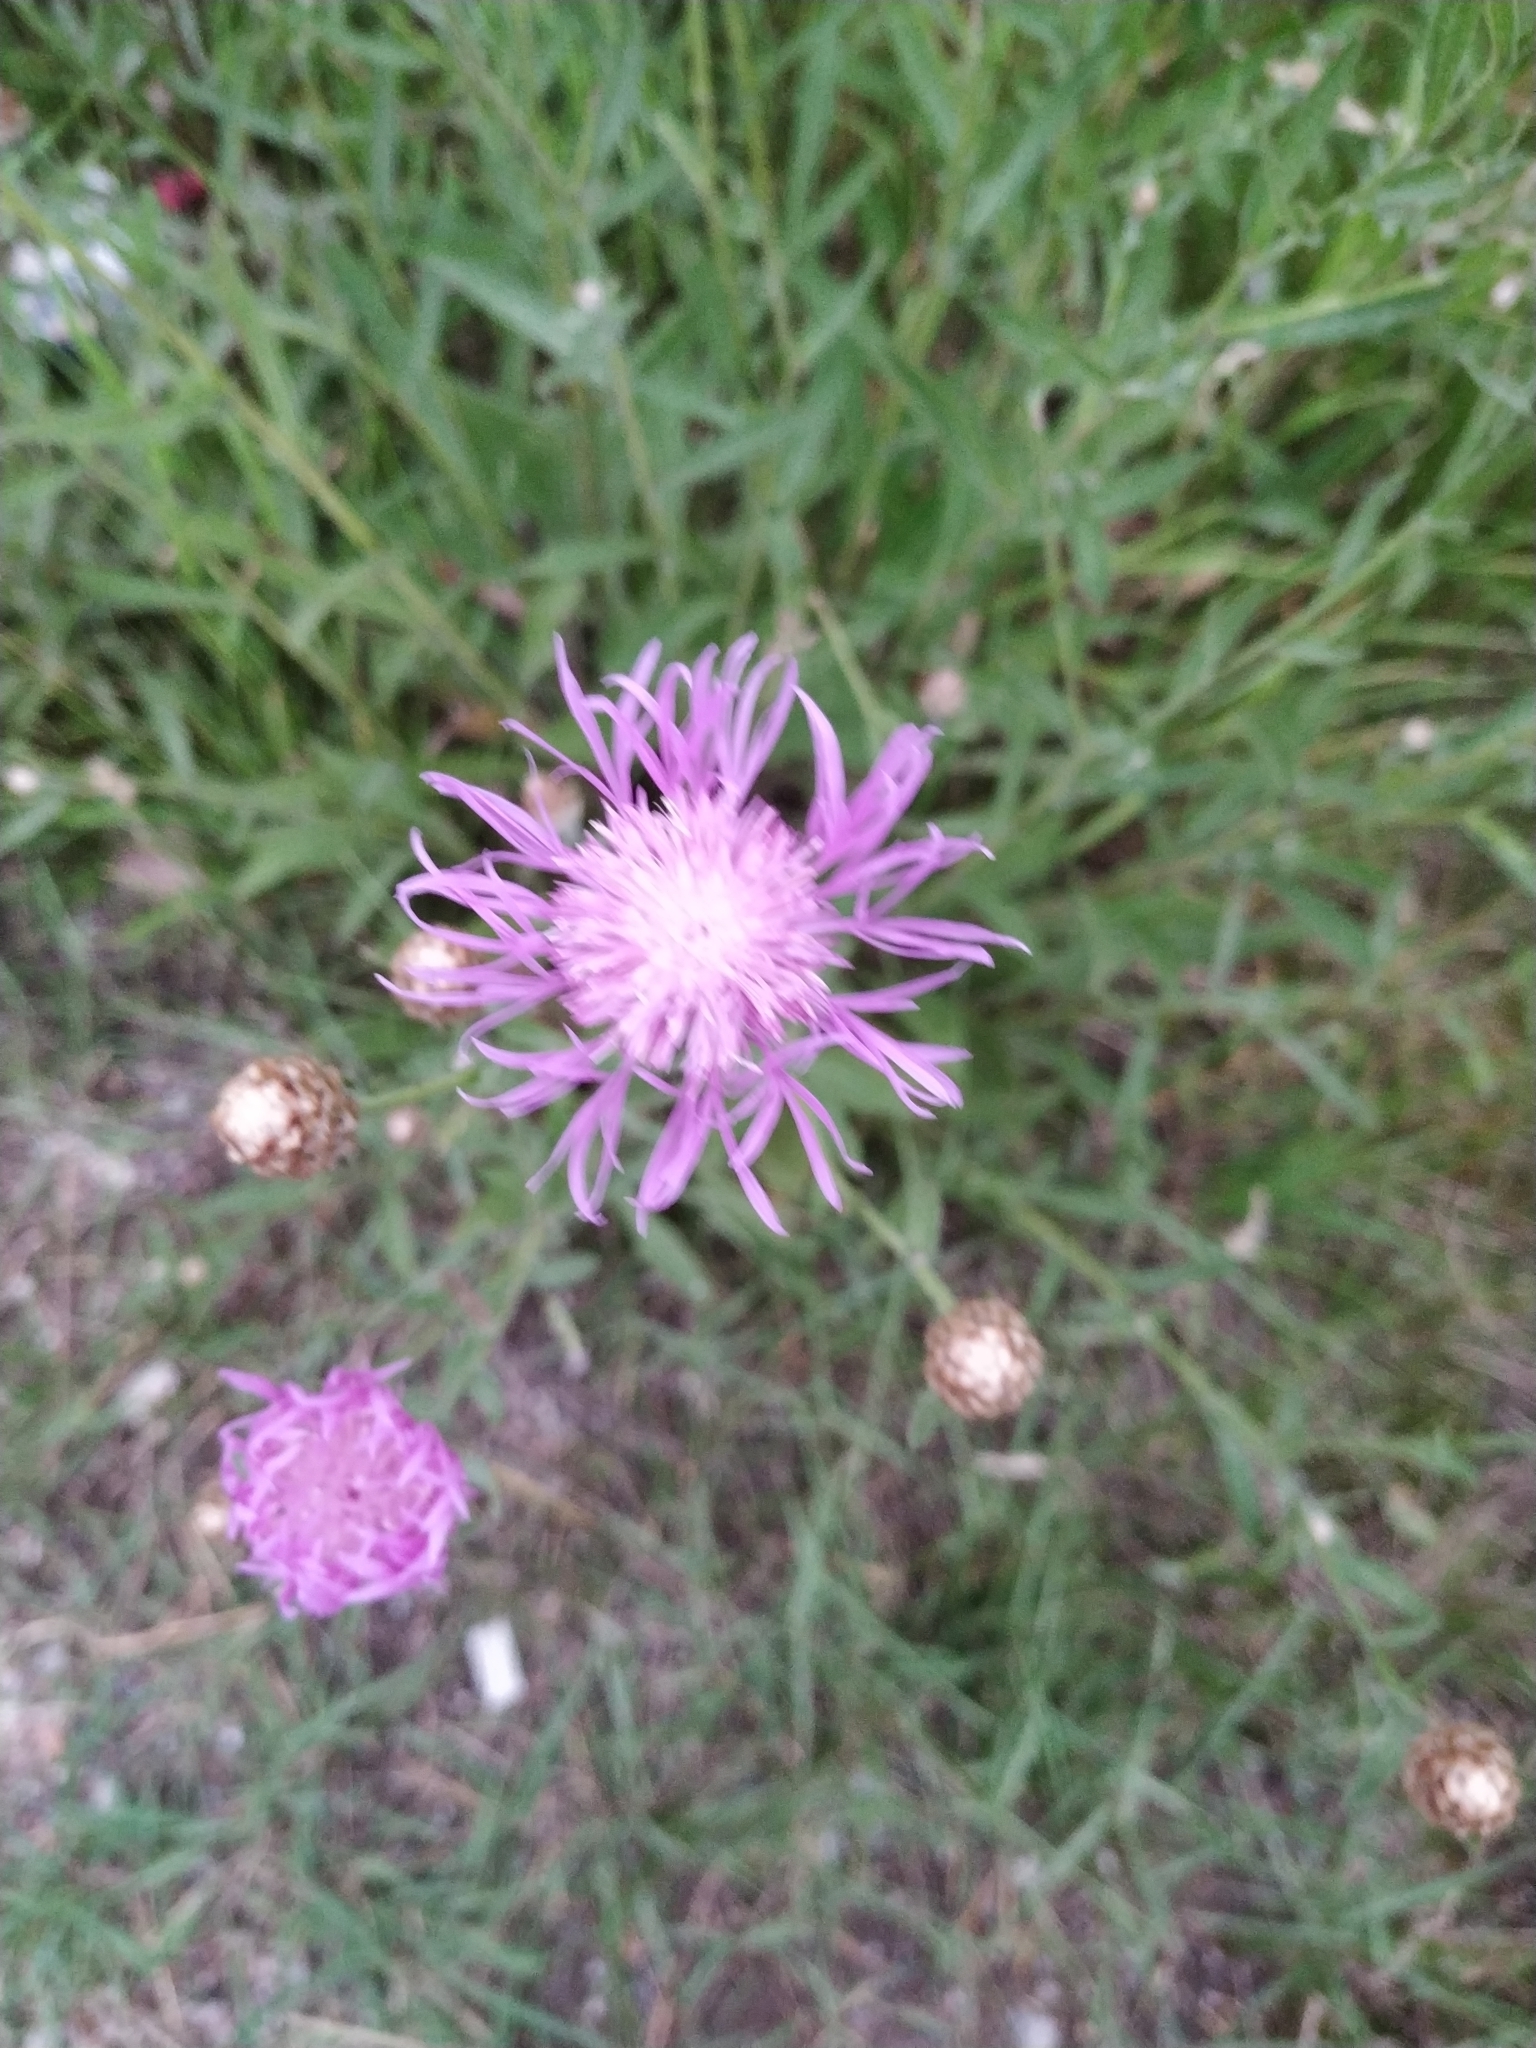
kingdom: Plantae
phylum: Tracheophyta
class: Magnoliopsida
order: Asterales
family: Asteraceae
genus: Centaurea
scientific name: Centaurea jacea
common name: Brown knapweed
